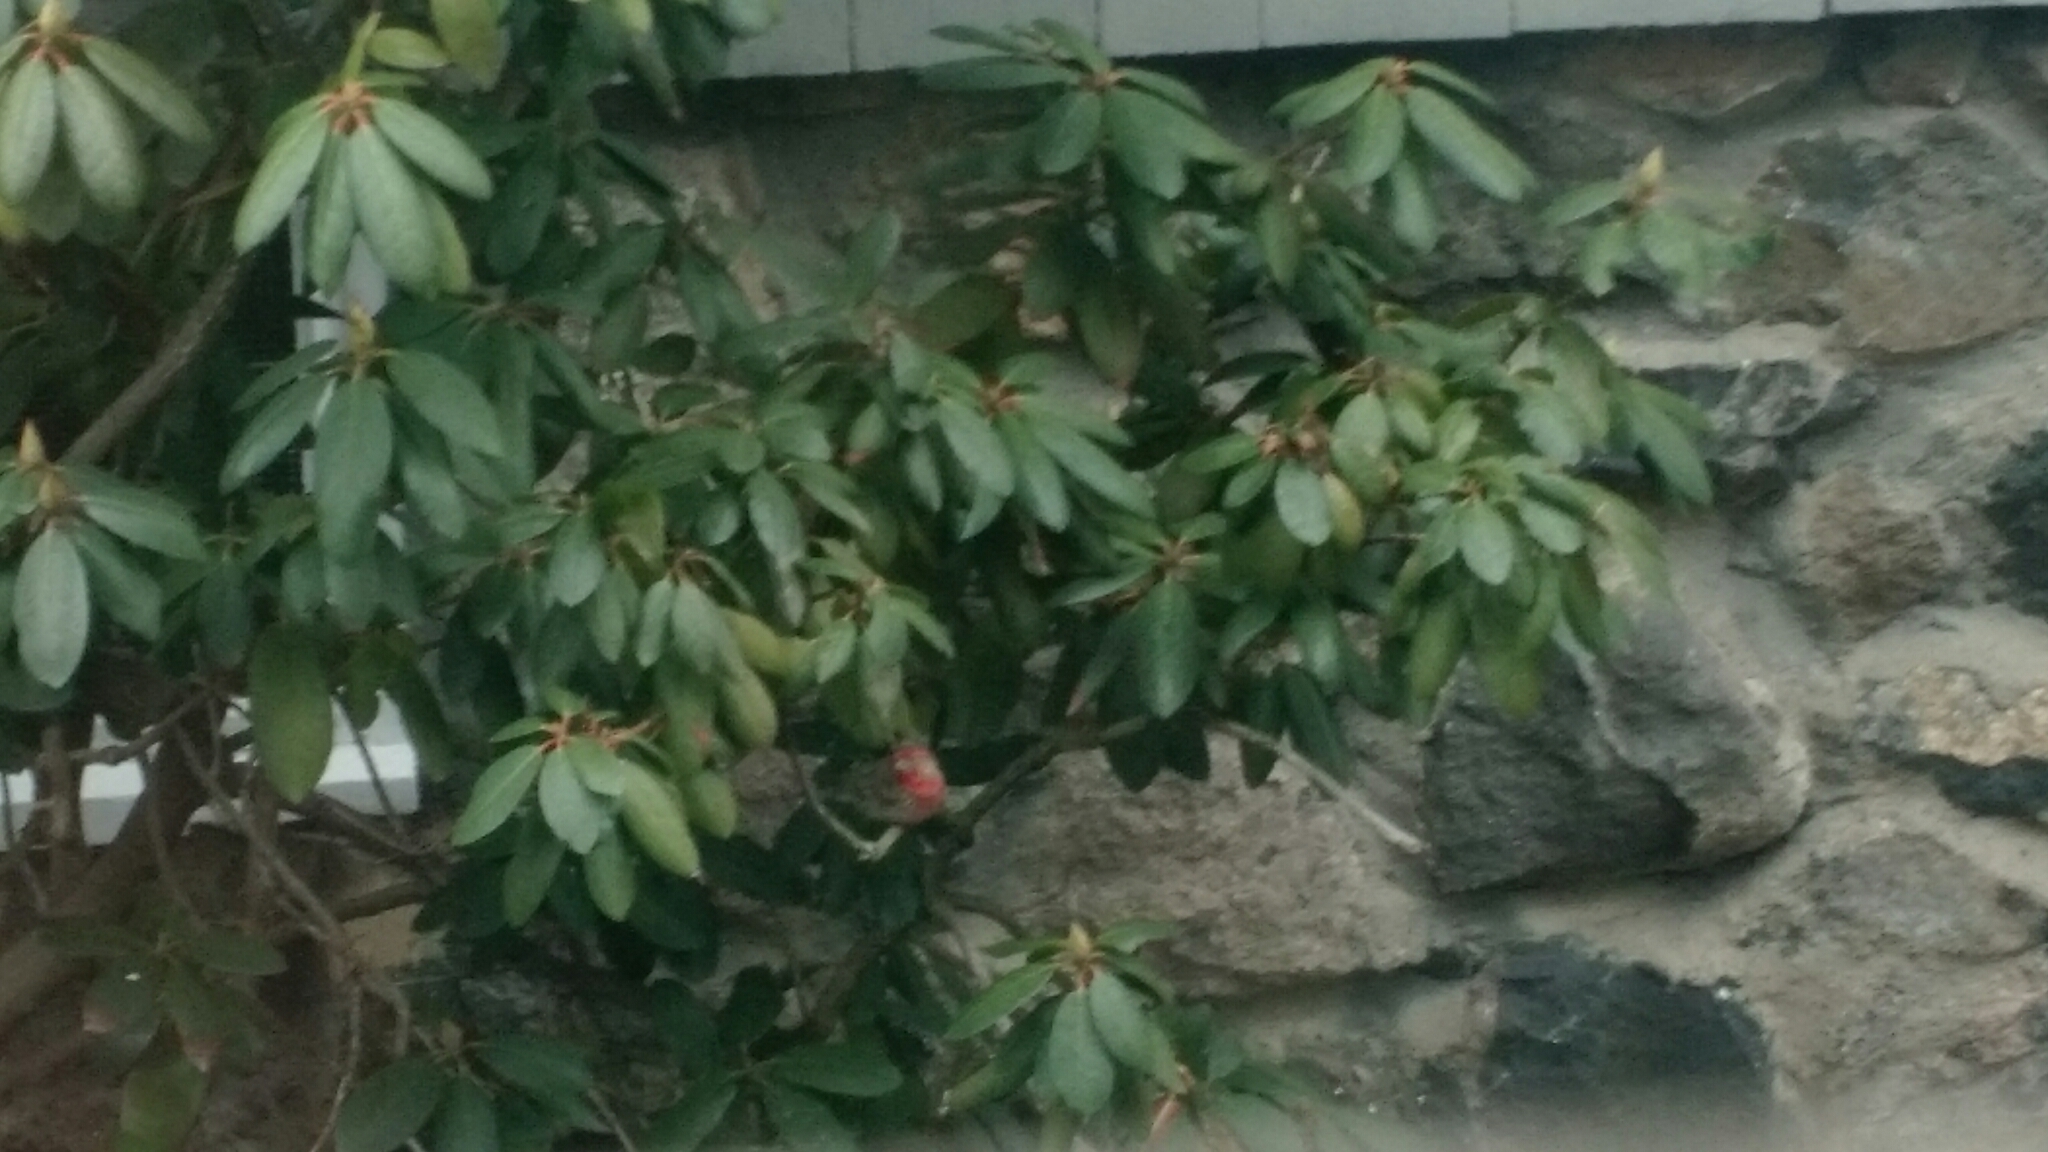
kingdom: Animalia
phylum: Chordata
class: Aves
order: Passeriformes
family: Fringillidae
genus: Haemorhous
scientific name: Haemorhous mexicanus
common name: House finch
